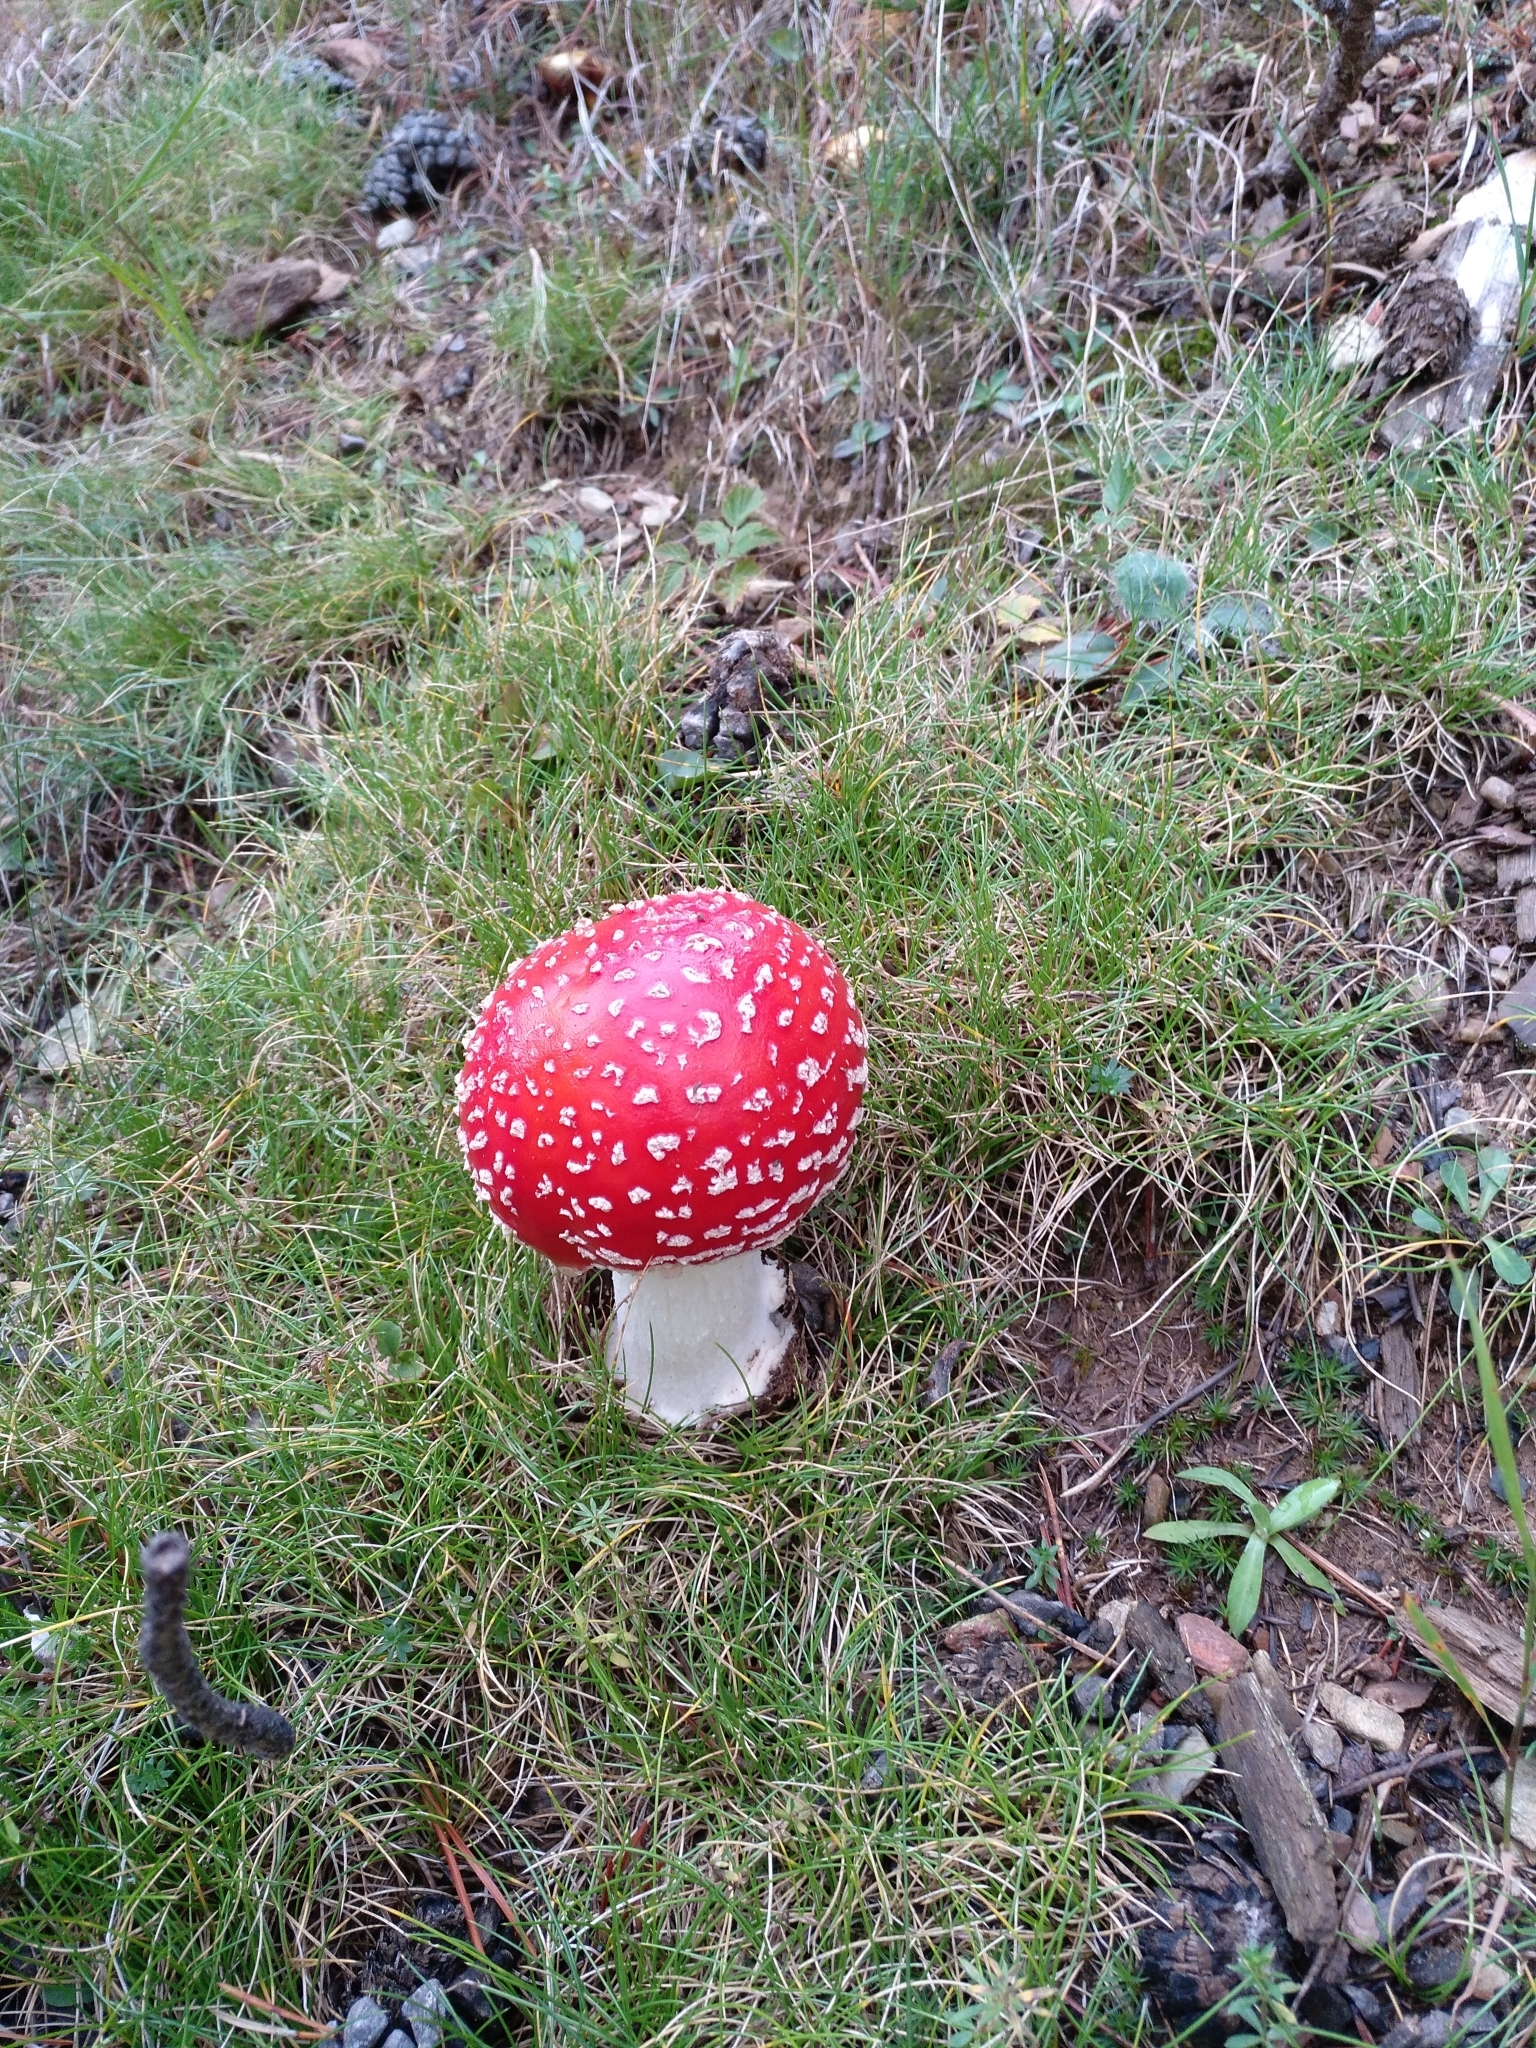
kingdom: Fungi
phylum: Basidiomycota
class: Agaricomycetes
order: Agaricales
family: Amanitaceae
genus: Amanita
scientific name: Amanita muscaria
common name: Fly agaric
